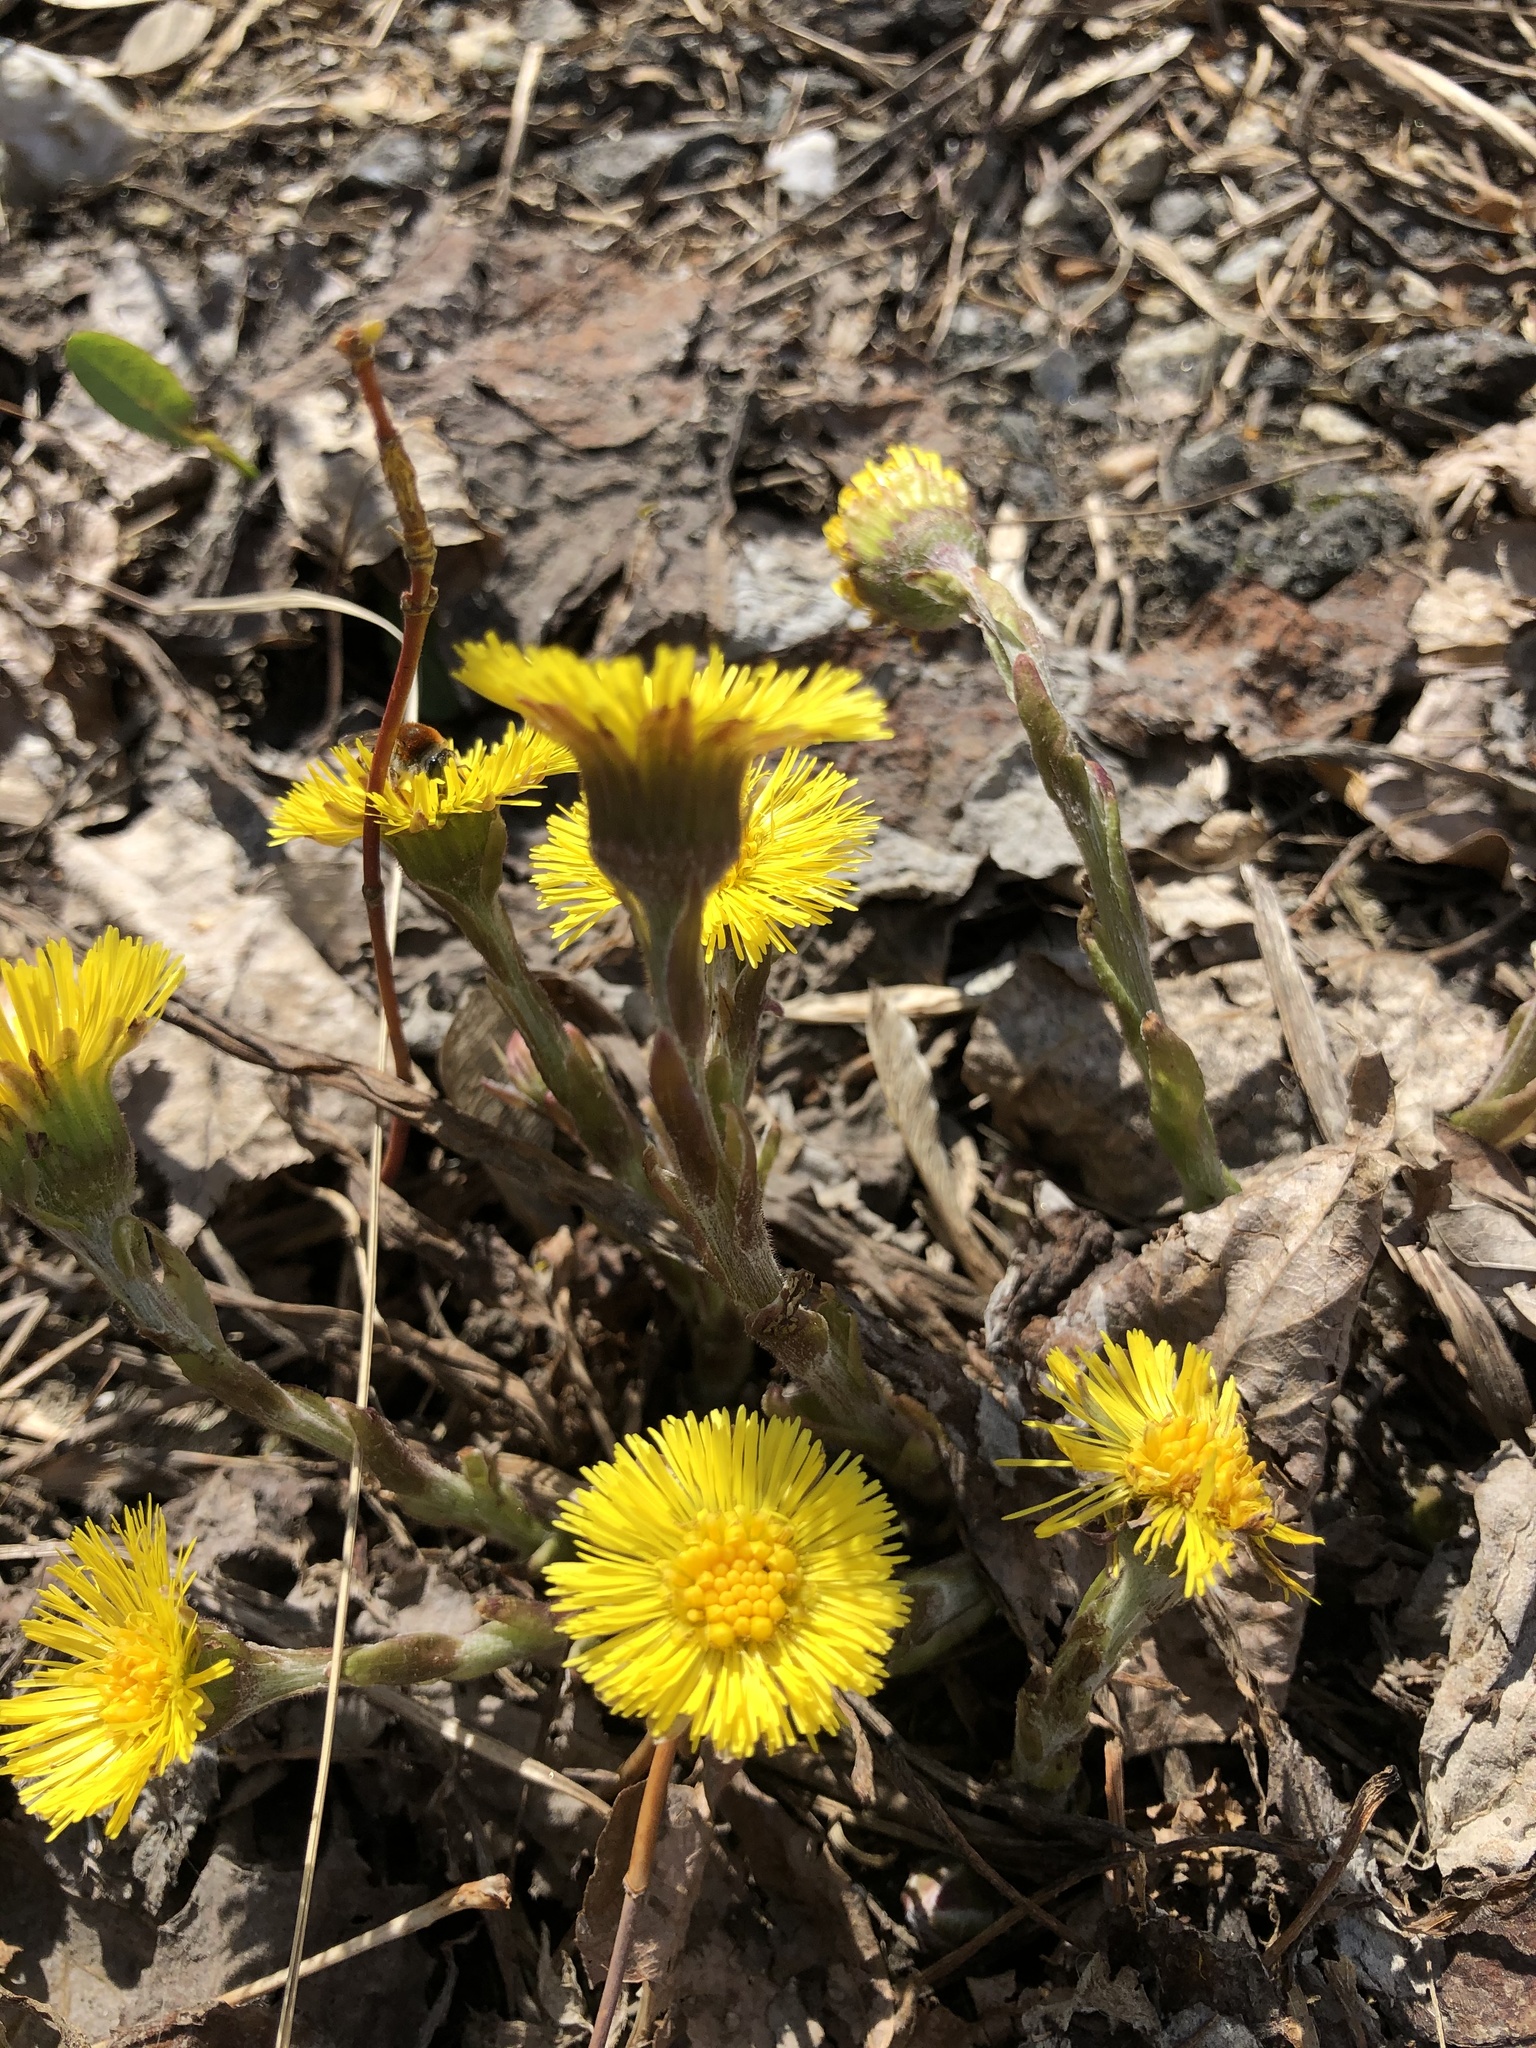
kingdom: Plantae
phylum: Tracheophyta
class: Magnoliopsida
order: Asterales
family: Asteraceae
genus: Tussilago
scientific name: Tussilago farfara
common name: Coltsfoot
